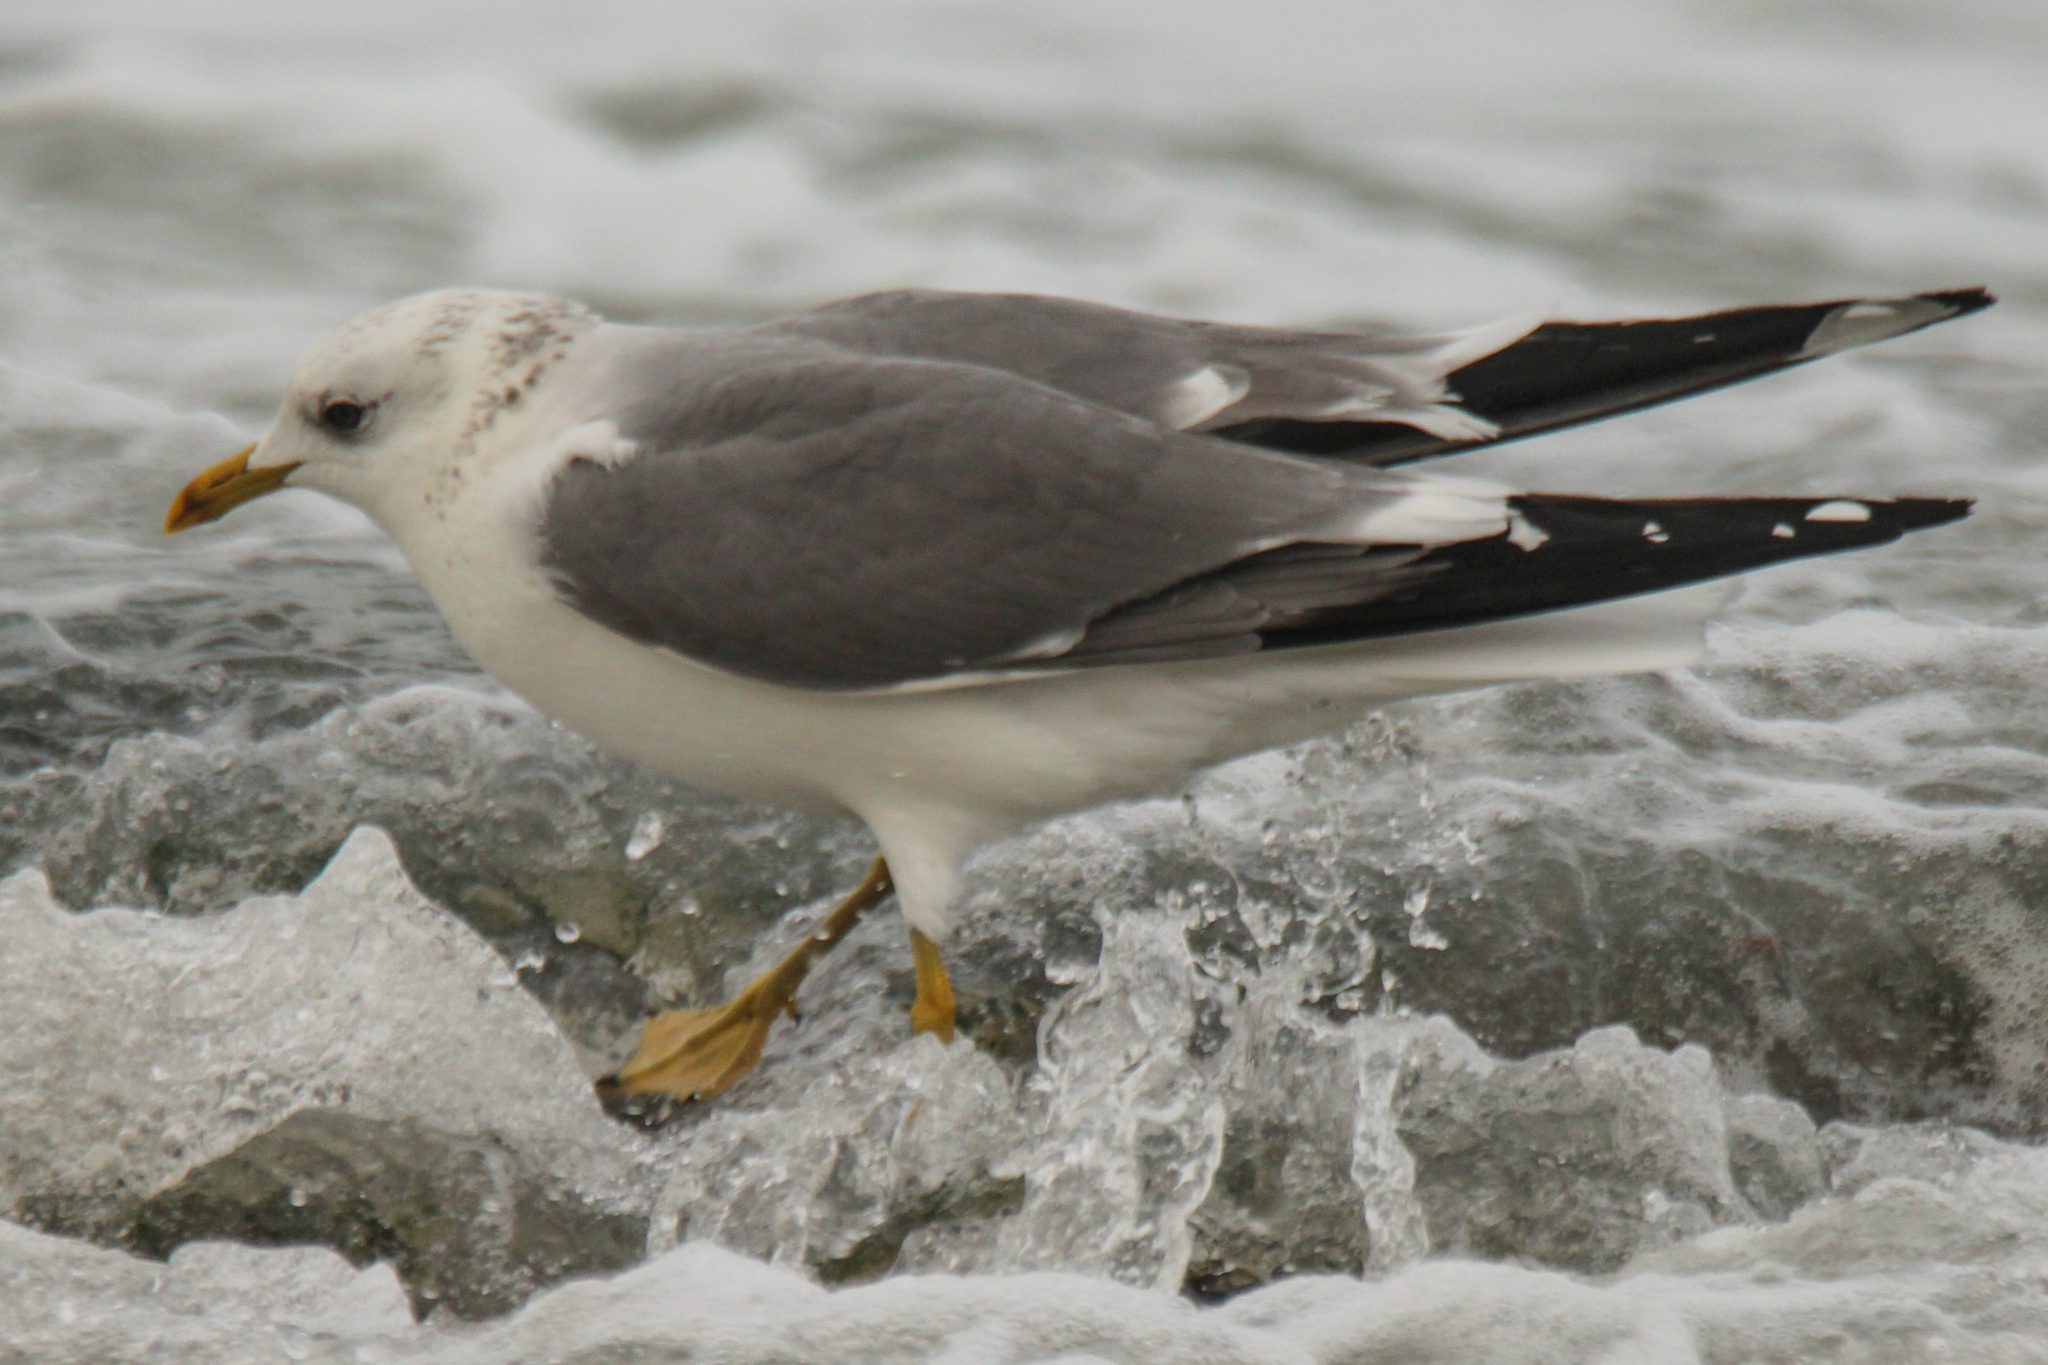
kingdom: Animalia
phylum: Chordata
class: Aves
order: Charadriiformes
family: Laridae
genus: Larus
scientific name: Larus canus
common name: Mew gull
